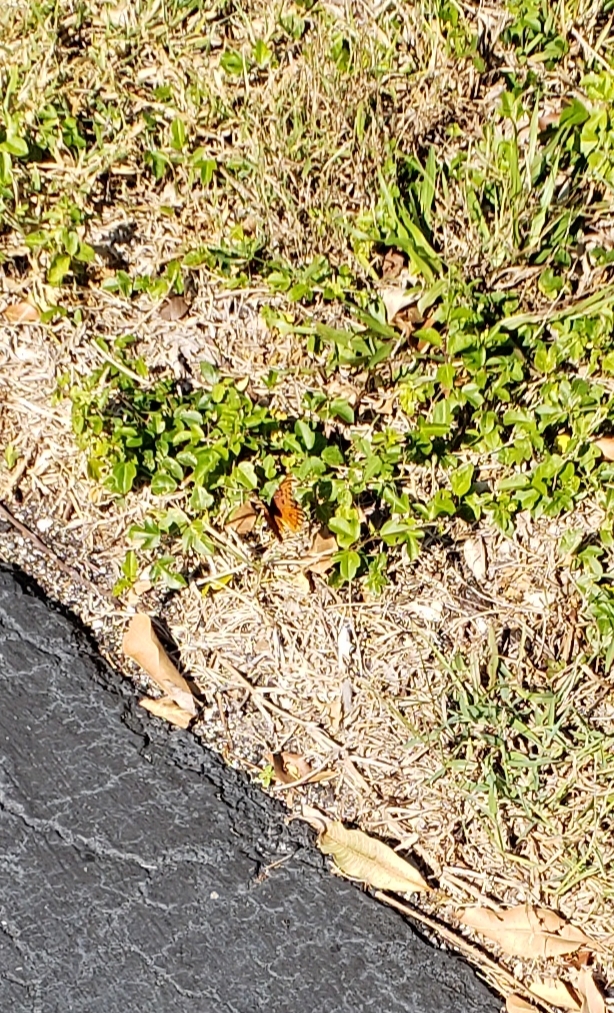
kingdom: Animalia
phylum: Arthropoda
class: Insecta
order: Lepidoptera
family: Nymphalidae
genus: Dione
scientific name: Dione vanillae
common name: Gulf fritillary
